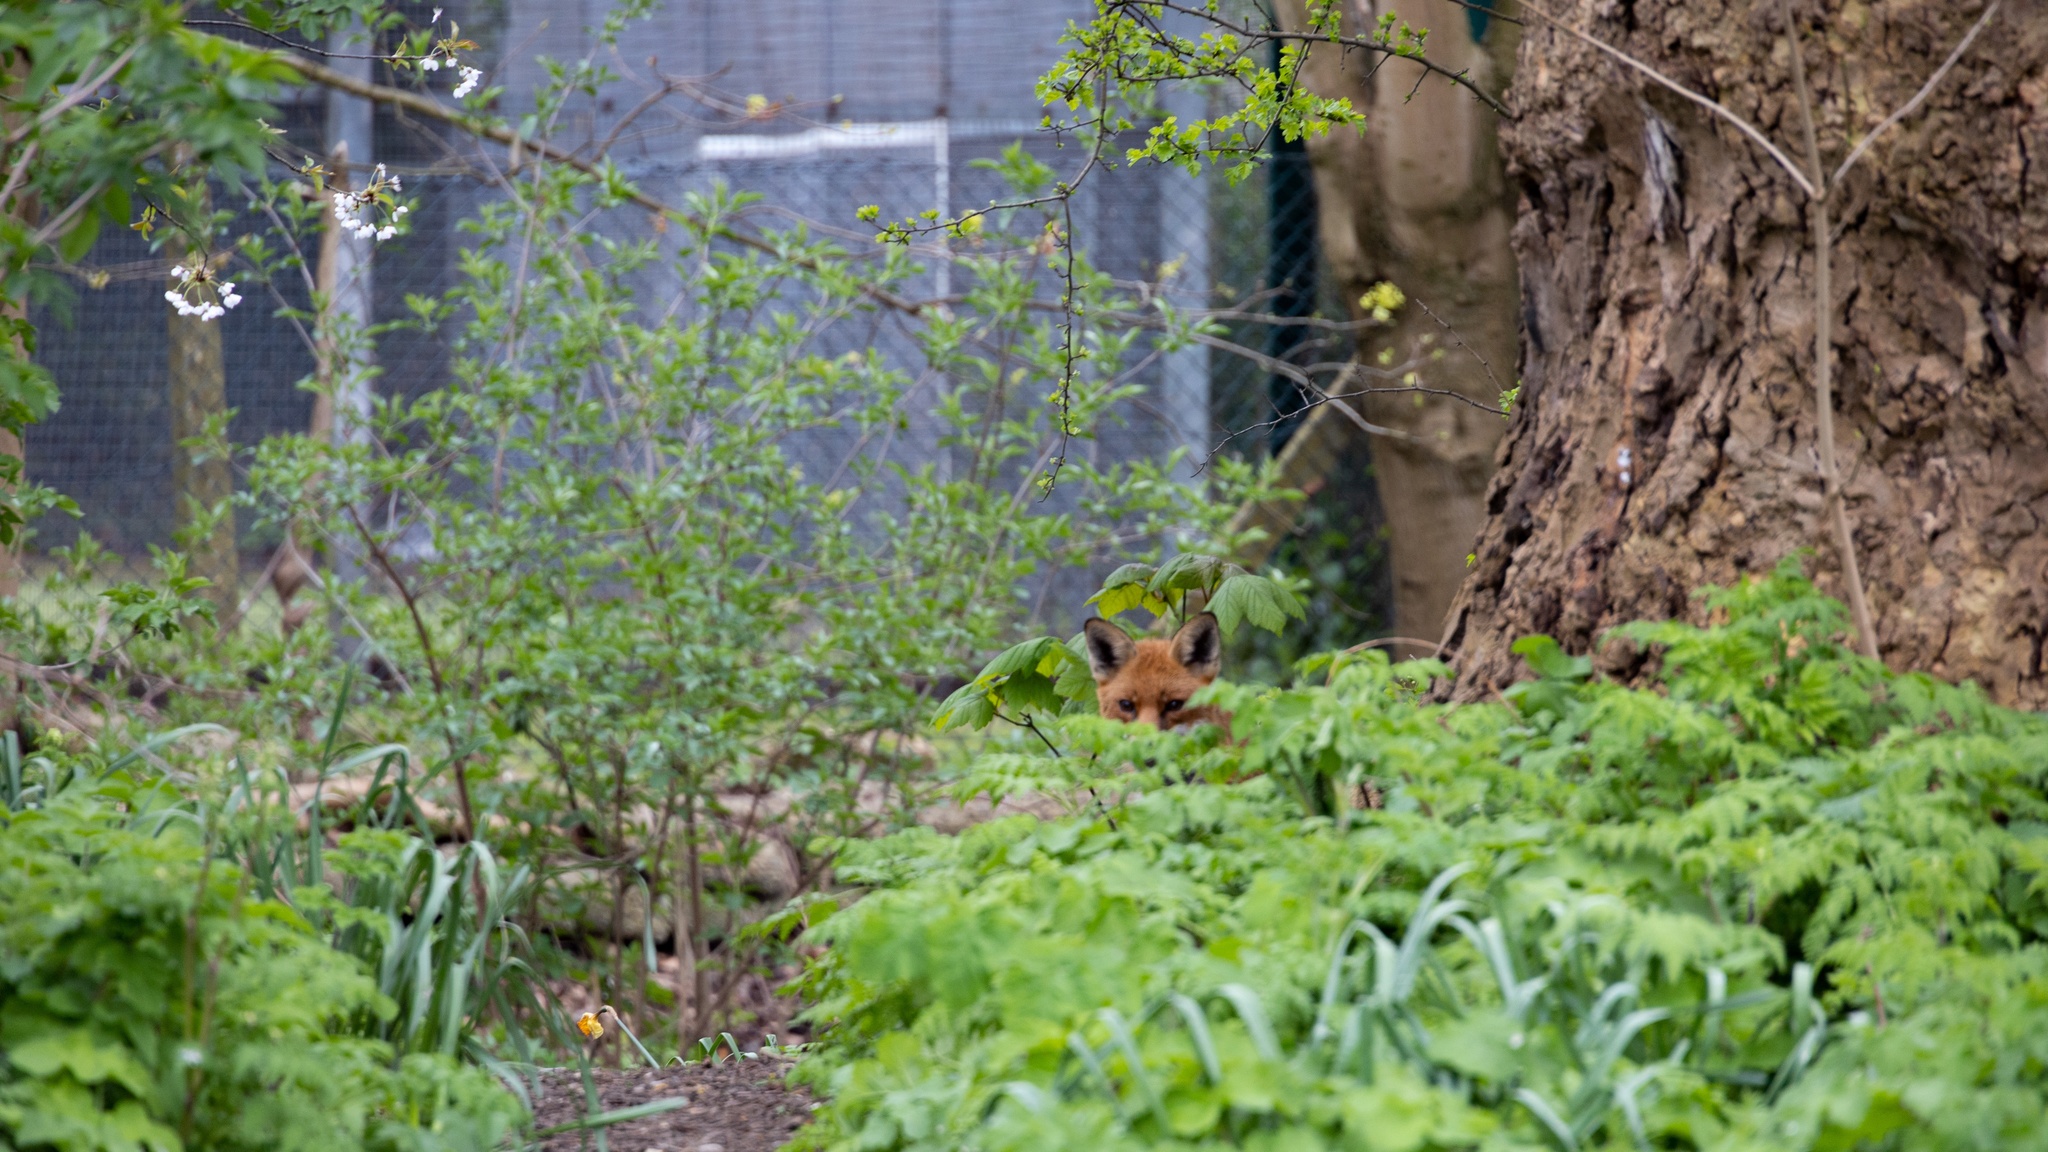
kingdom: Animalia
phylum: Chordata
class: Mammalia
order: Carnivora
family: Canidae
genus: Vulpes
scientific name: Vulpes vulpes
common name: Red fox
